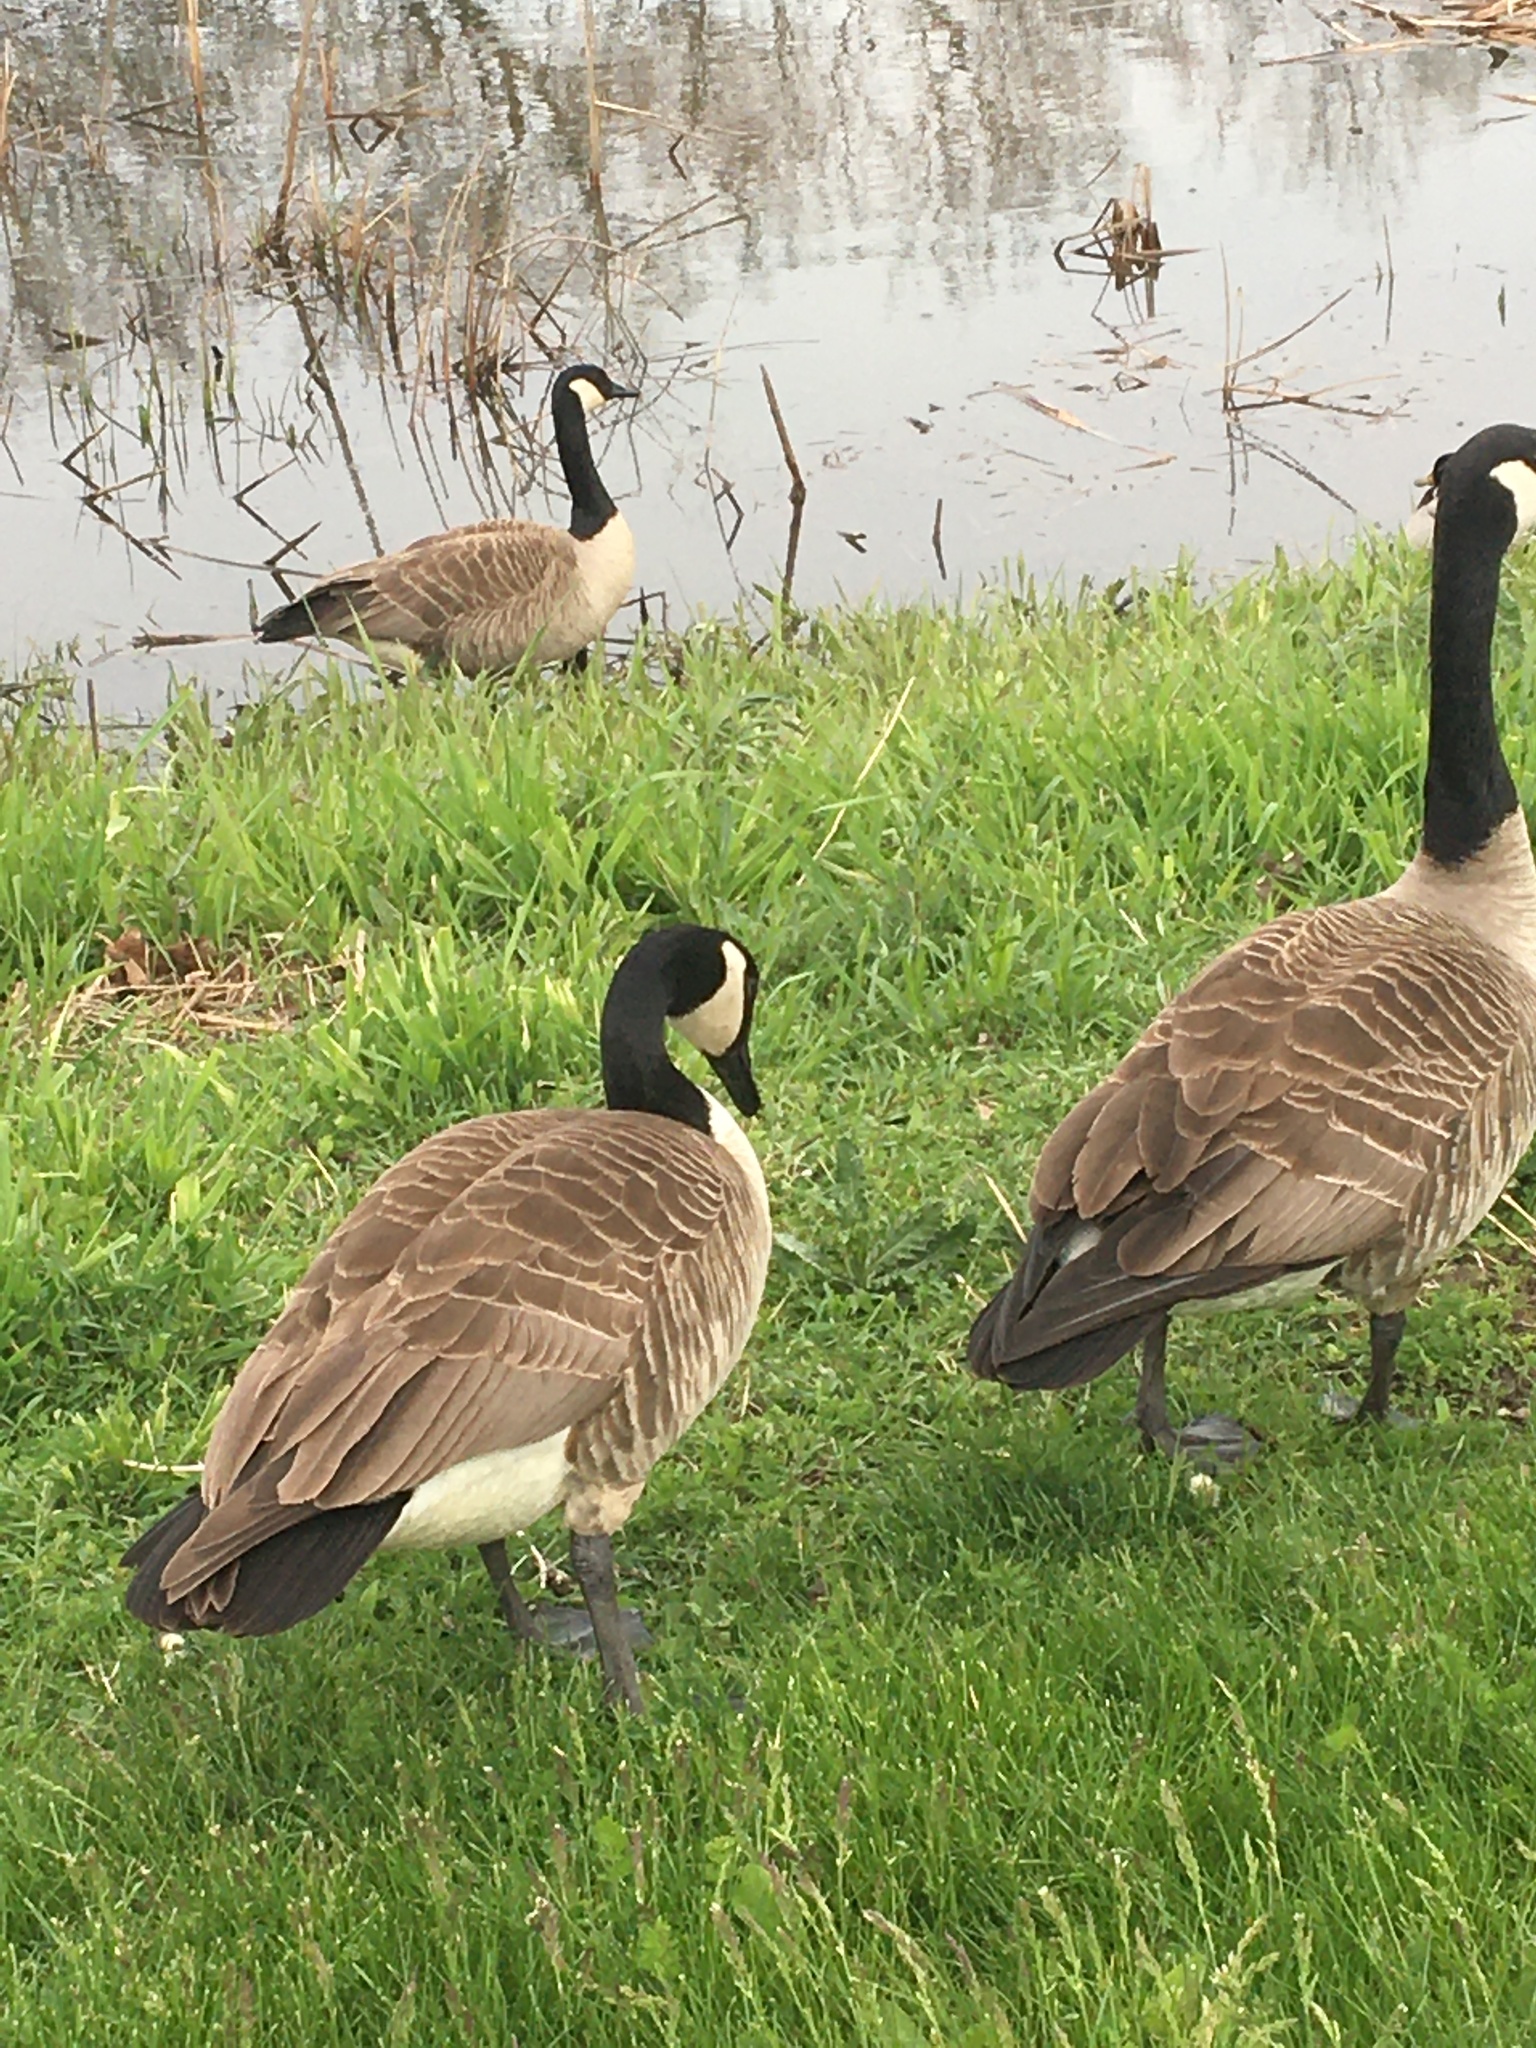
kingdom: Animalia
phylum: Chordata
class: Aves
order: Anseriformes
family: Anatidae
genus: Branta
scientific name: Branta canadensis
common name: Canada goose
